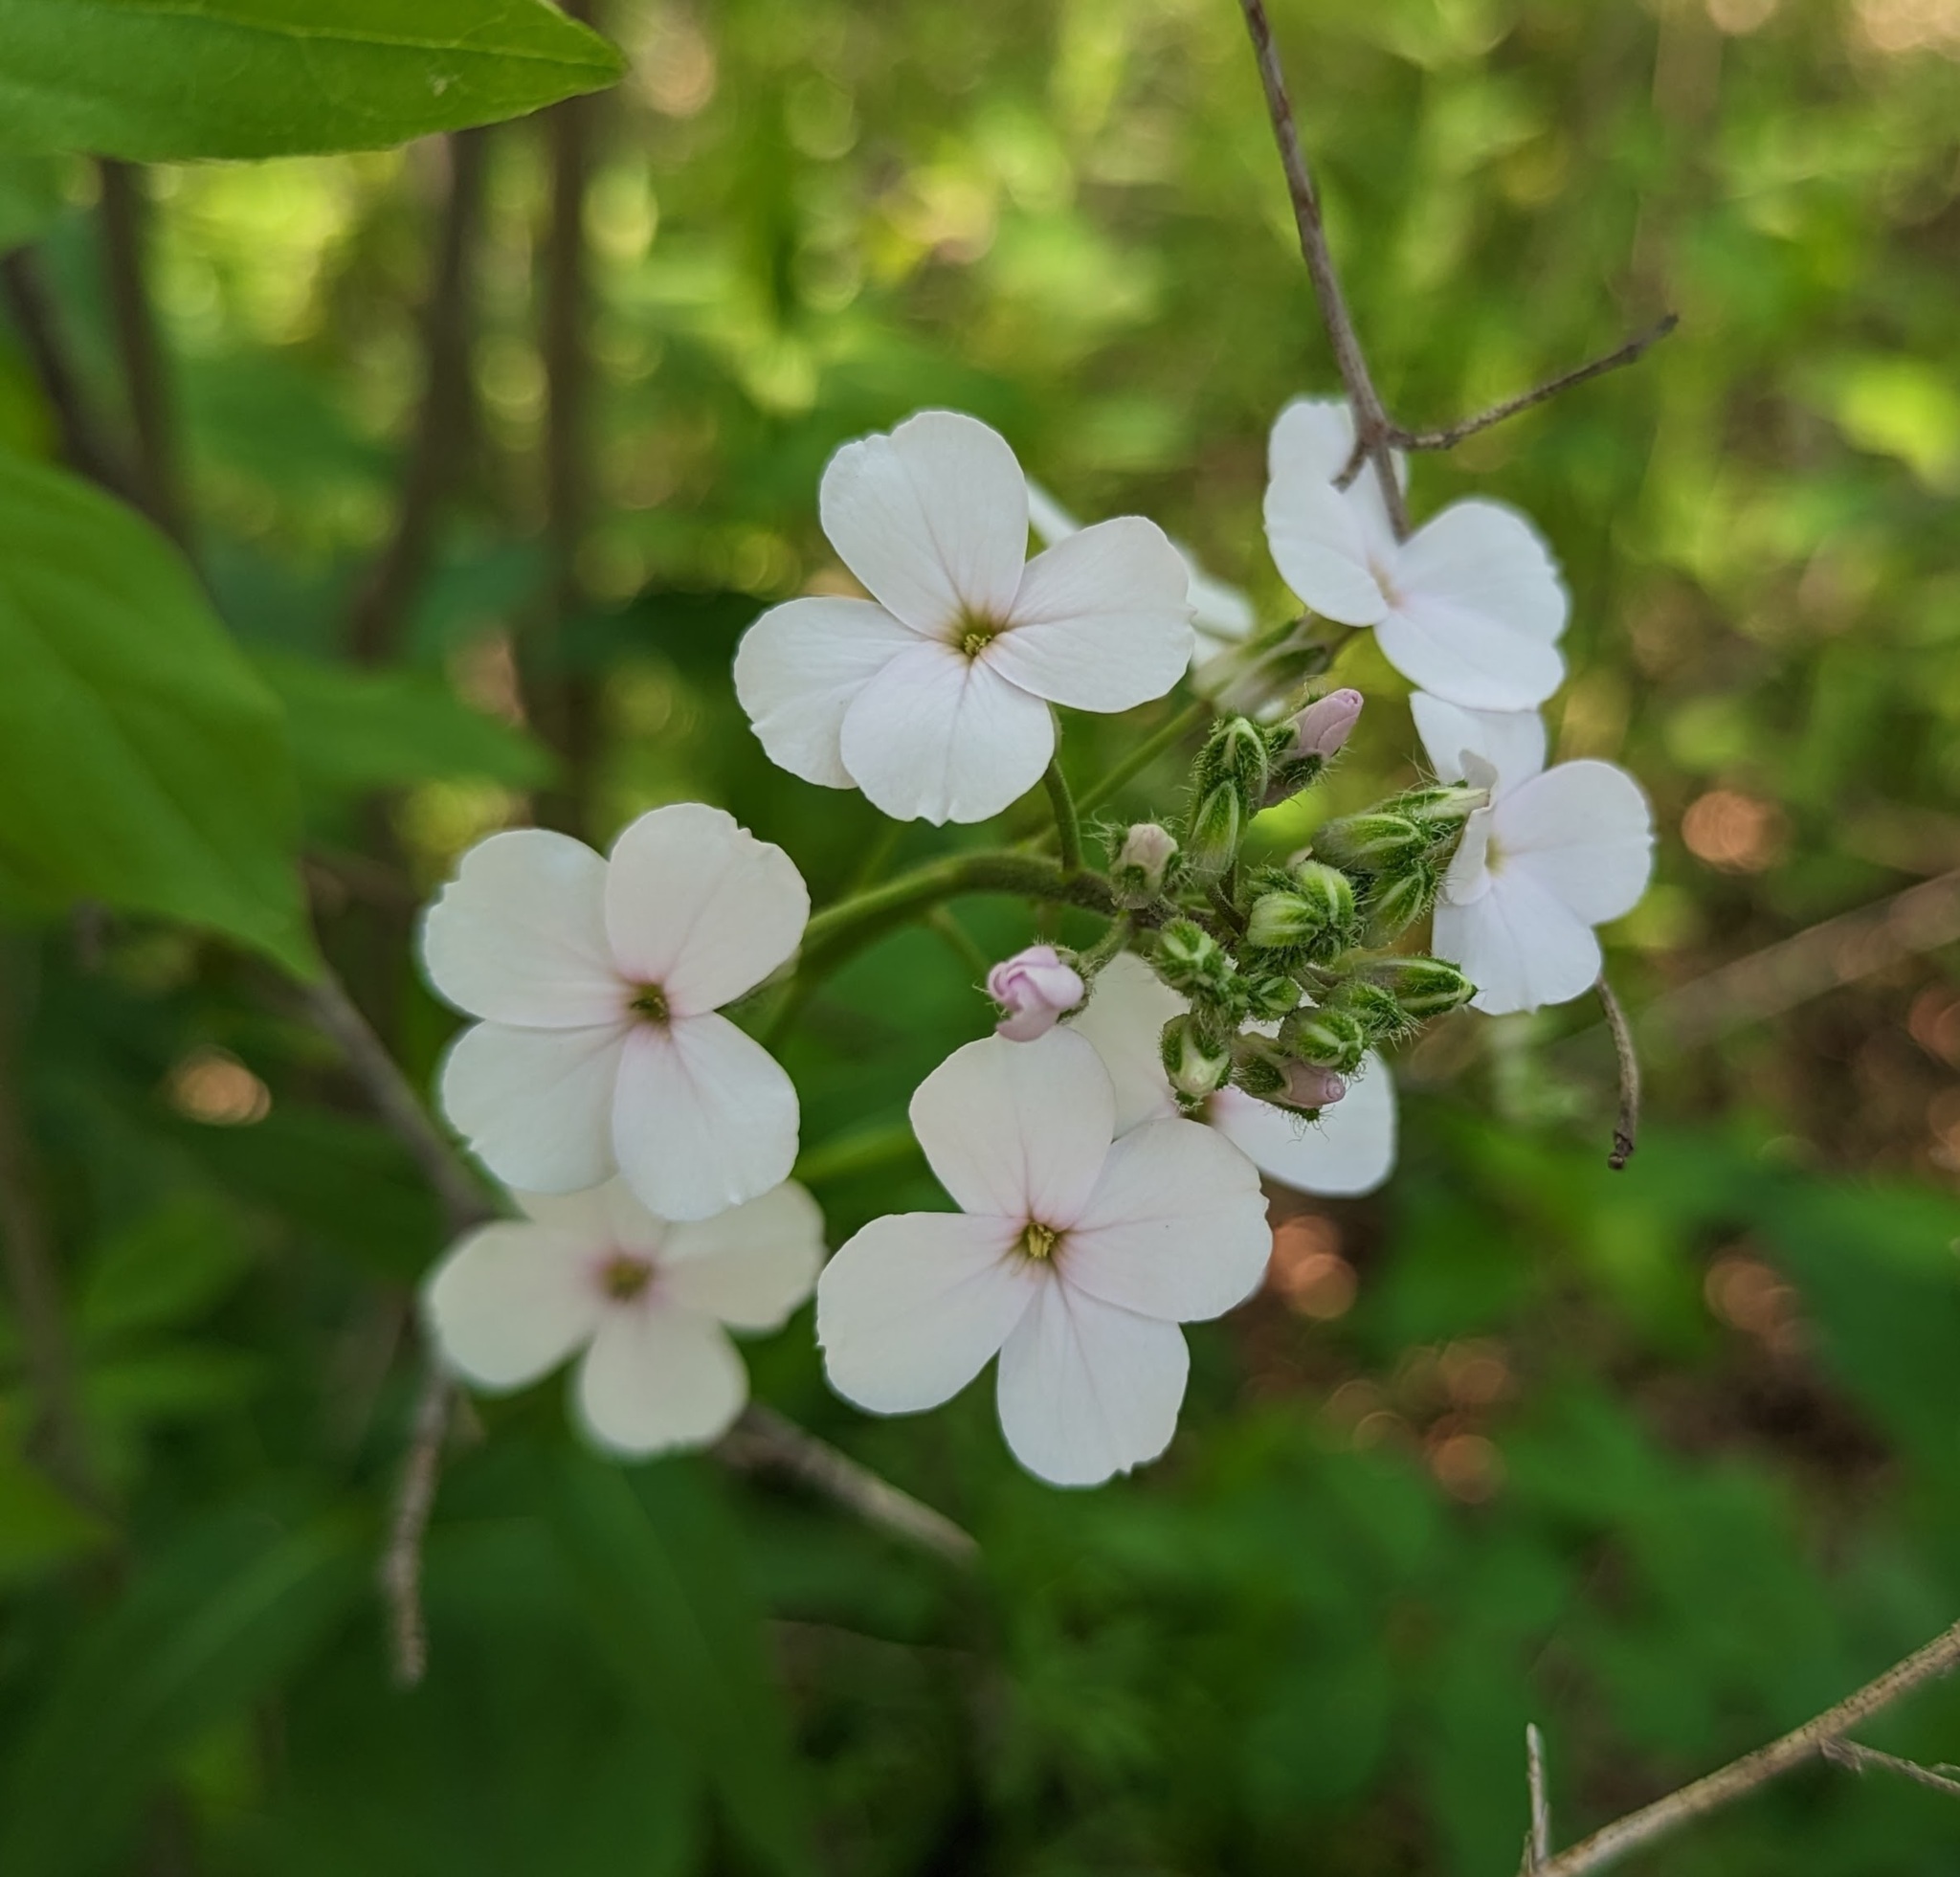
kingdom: Plantae
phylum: Tracheophyta
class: Magnoliopsida
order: Brassicales
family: Brassicaceae
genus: Hesperis
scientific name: Hesperis matronalis
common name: Dame's-violet
